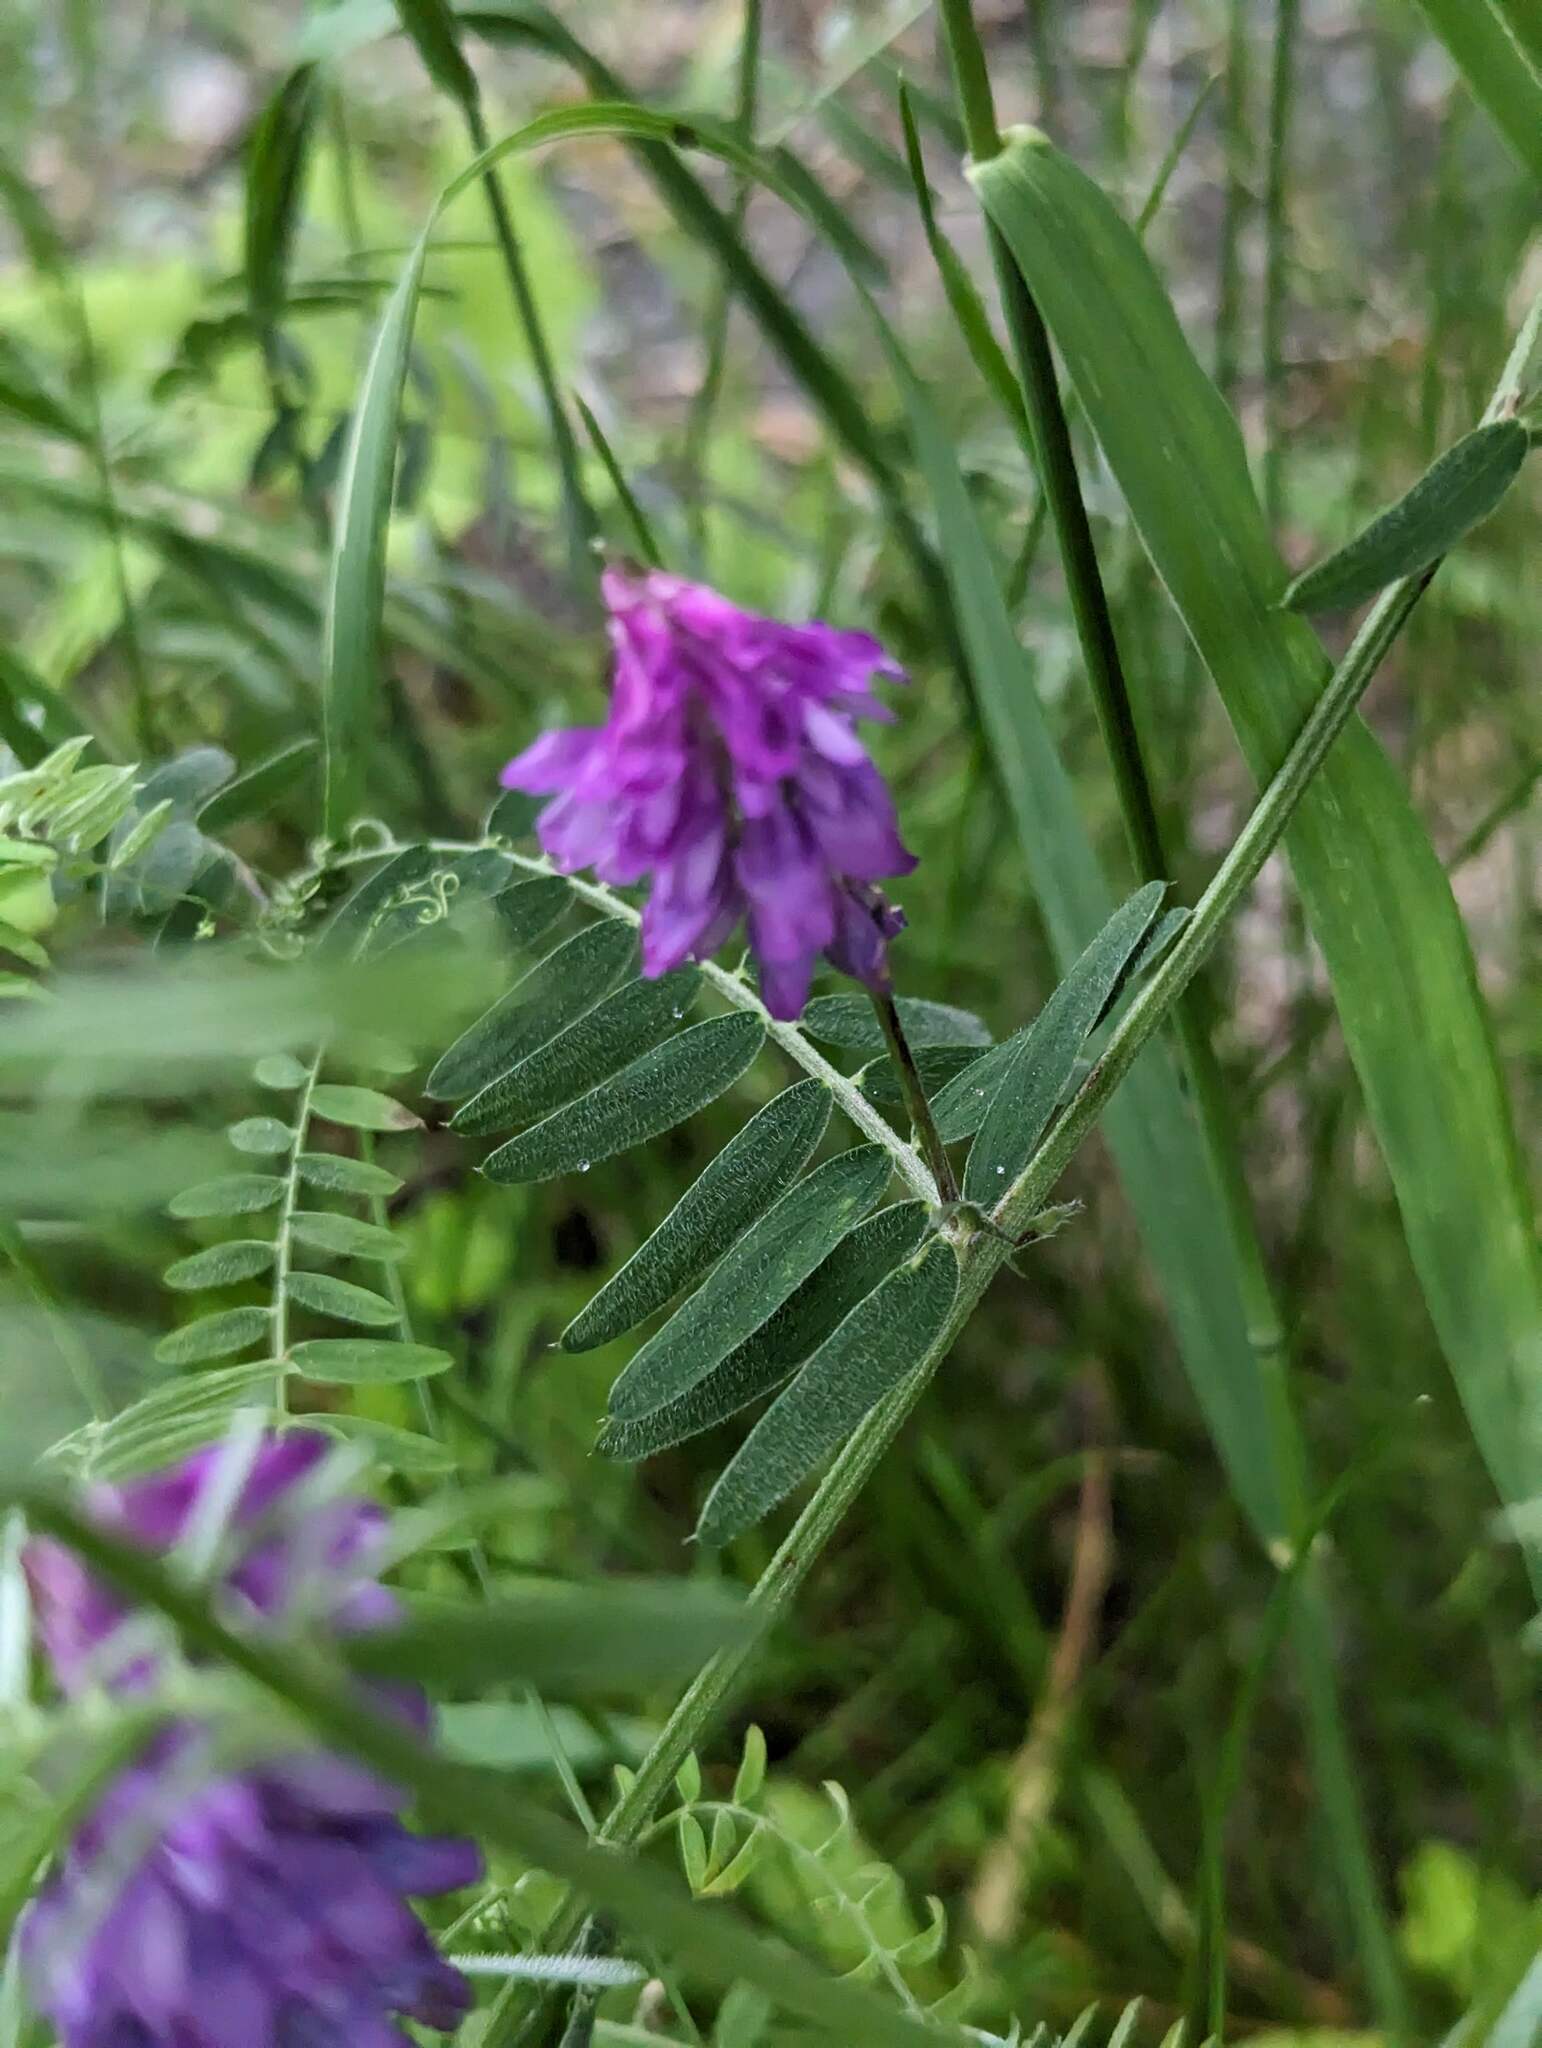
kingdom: Plantae
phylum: Tracheophyta
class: Magnoliopsida
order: Fabales
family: Fabaceae
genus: Vicia
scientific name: Vicia cracca
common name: Bird vetch
